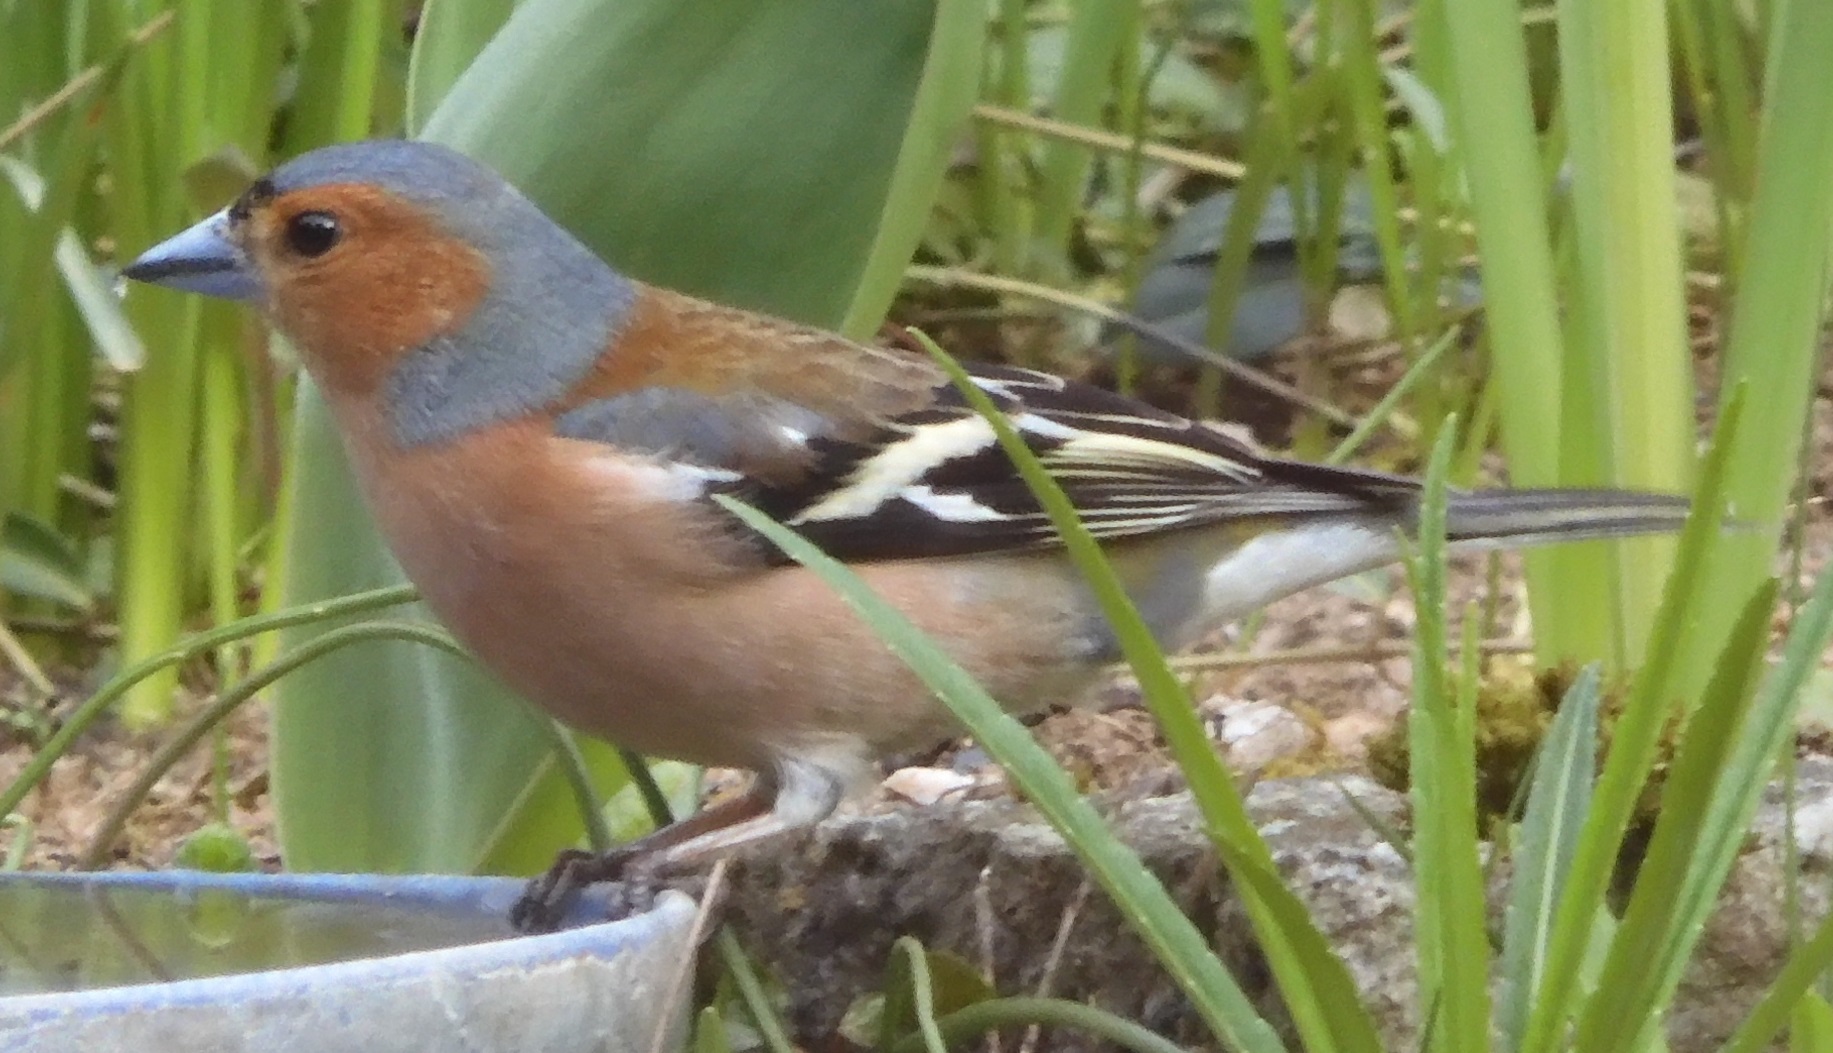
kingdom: Animalia
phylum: Chordata
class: Aves
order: Passeriformes
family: Fringillidae
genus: Fringilla
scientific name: Fringilla coelebs
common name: Common chaffinch
